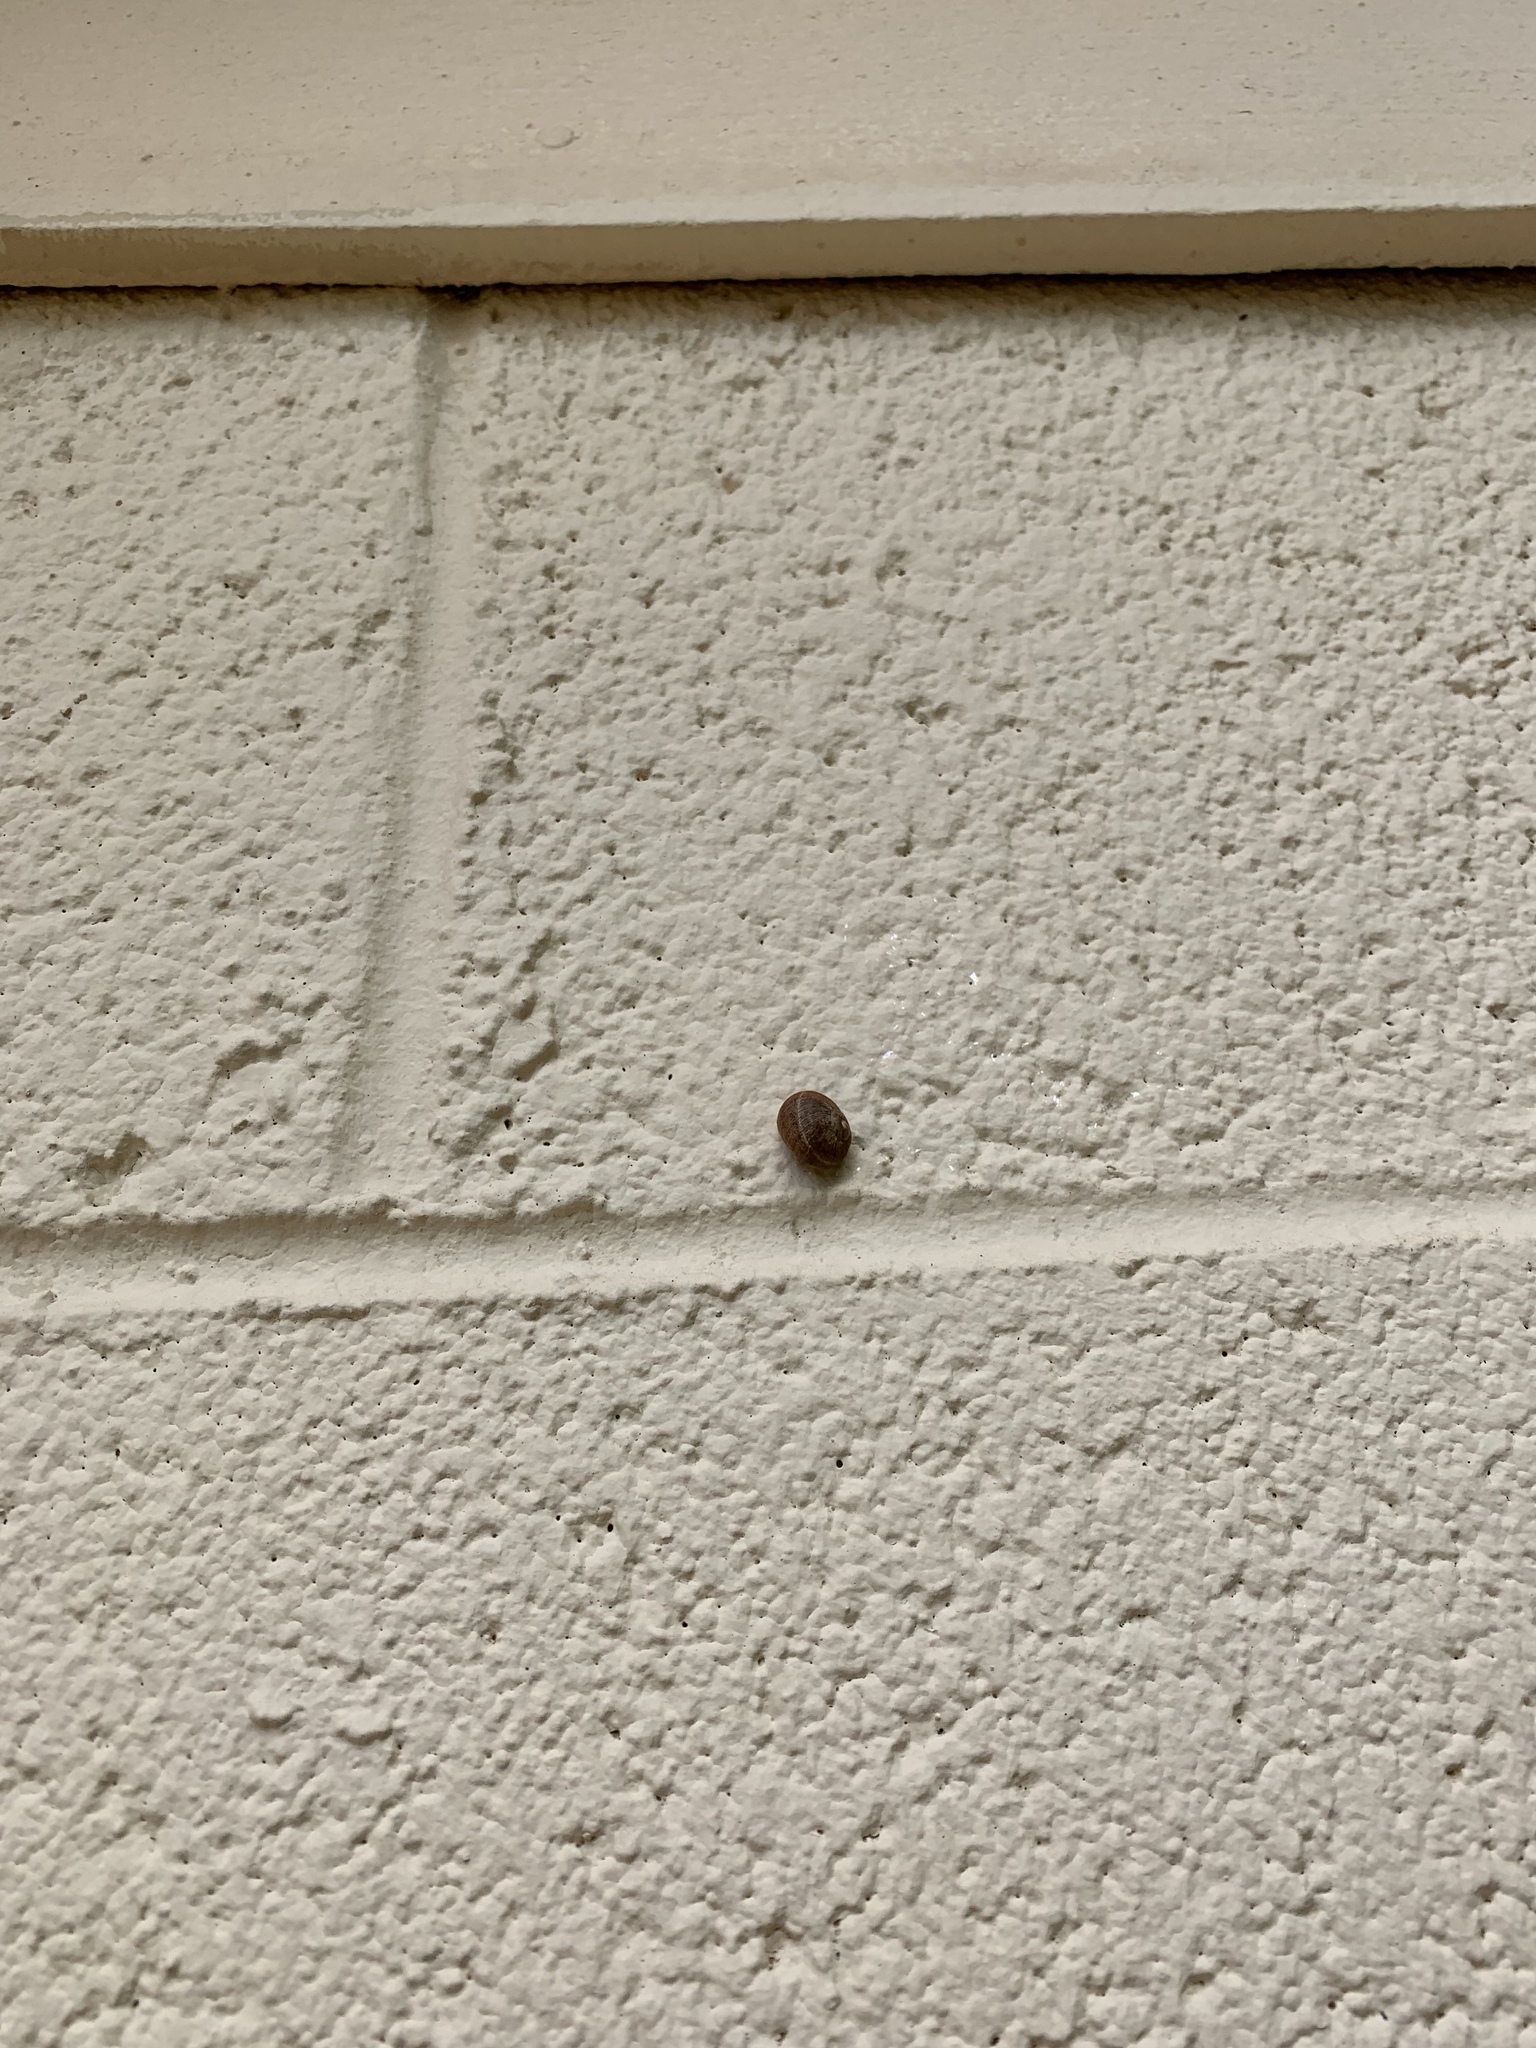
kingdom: Animalia
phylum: Mollusca
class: Gastropoda
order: Stylommatophora
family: Helicidae
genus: Cornu
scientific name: Cornu aspersum
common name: Brown garden snail
